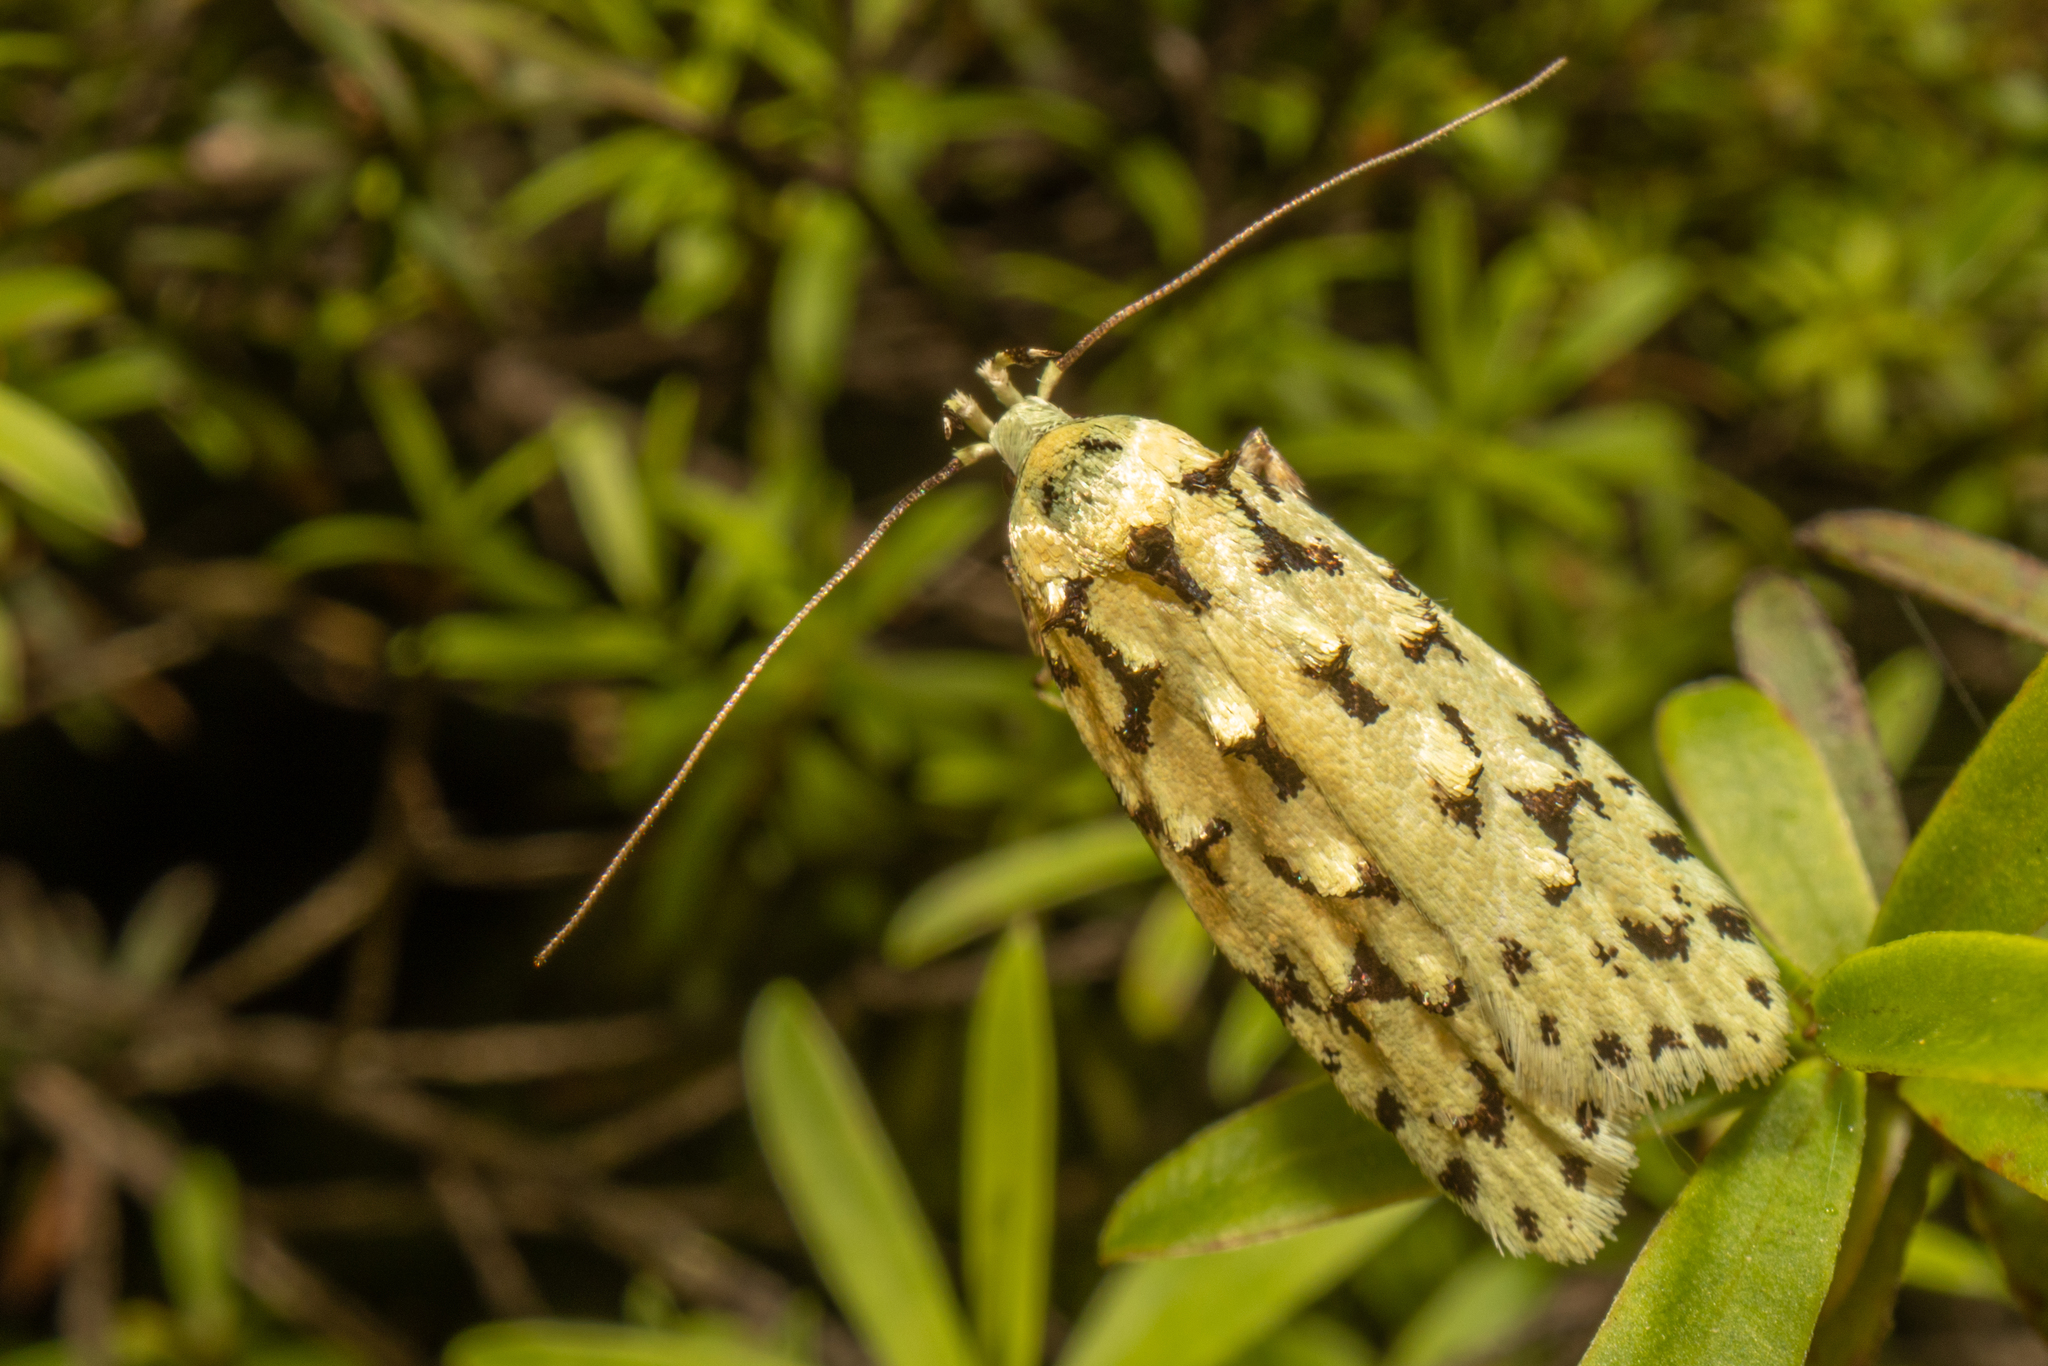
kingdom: Animalia
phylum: Arthropoda
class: Insecta
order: Lepidoptera
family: Oecophoridae
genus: Izatha
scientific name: Izatha peroneanella
